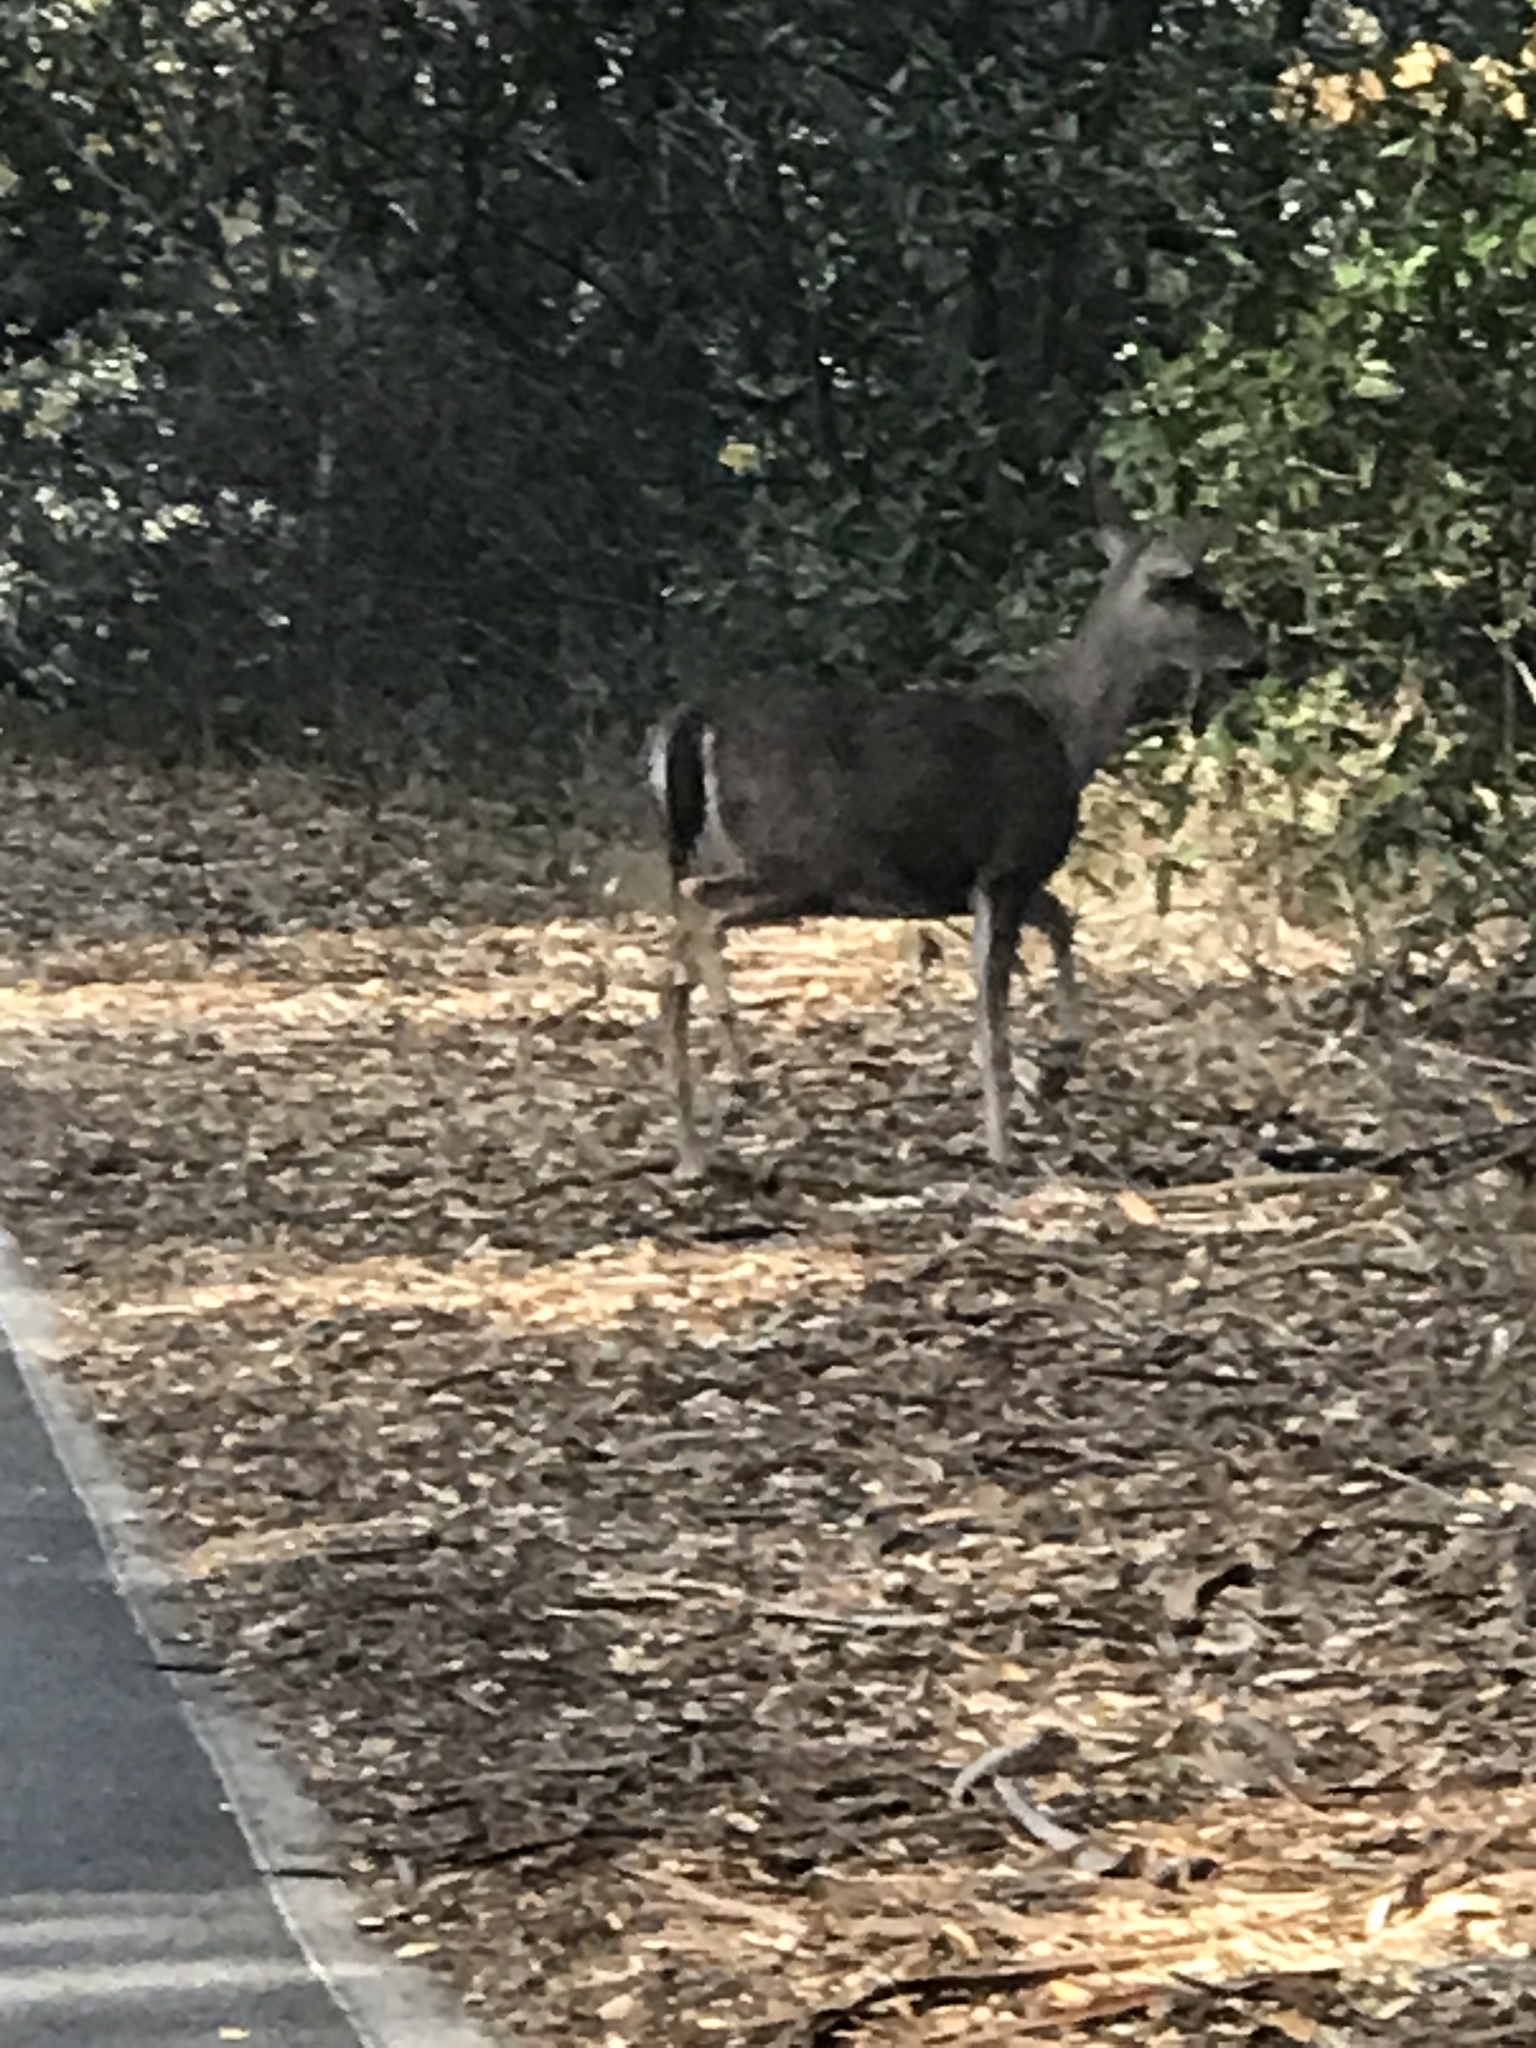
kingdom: Animalia
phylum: Chordata
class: Mammalia
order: Artiodactyla
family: Cervidae
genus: Odocoileus
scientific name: Odocoileus hemionus
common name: Mule deer
